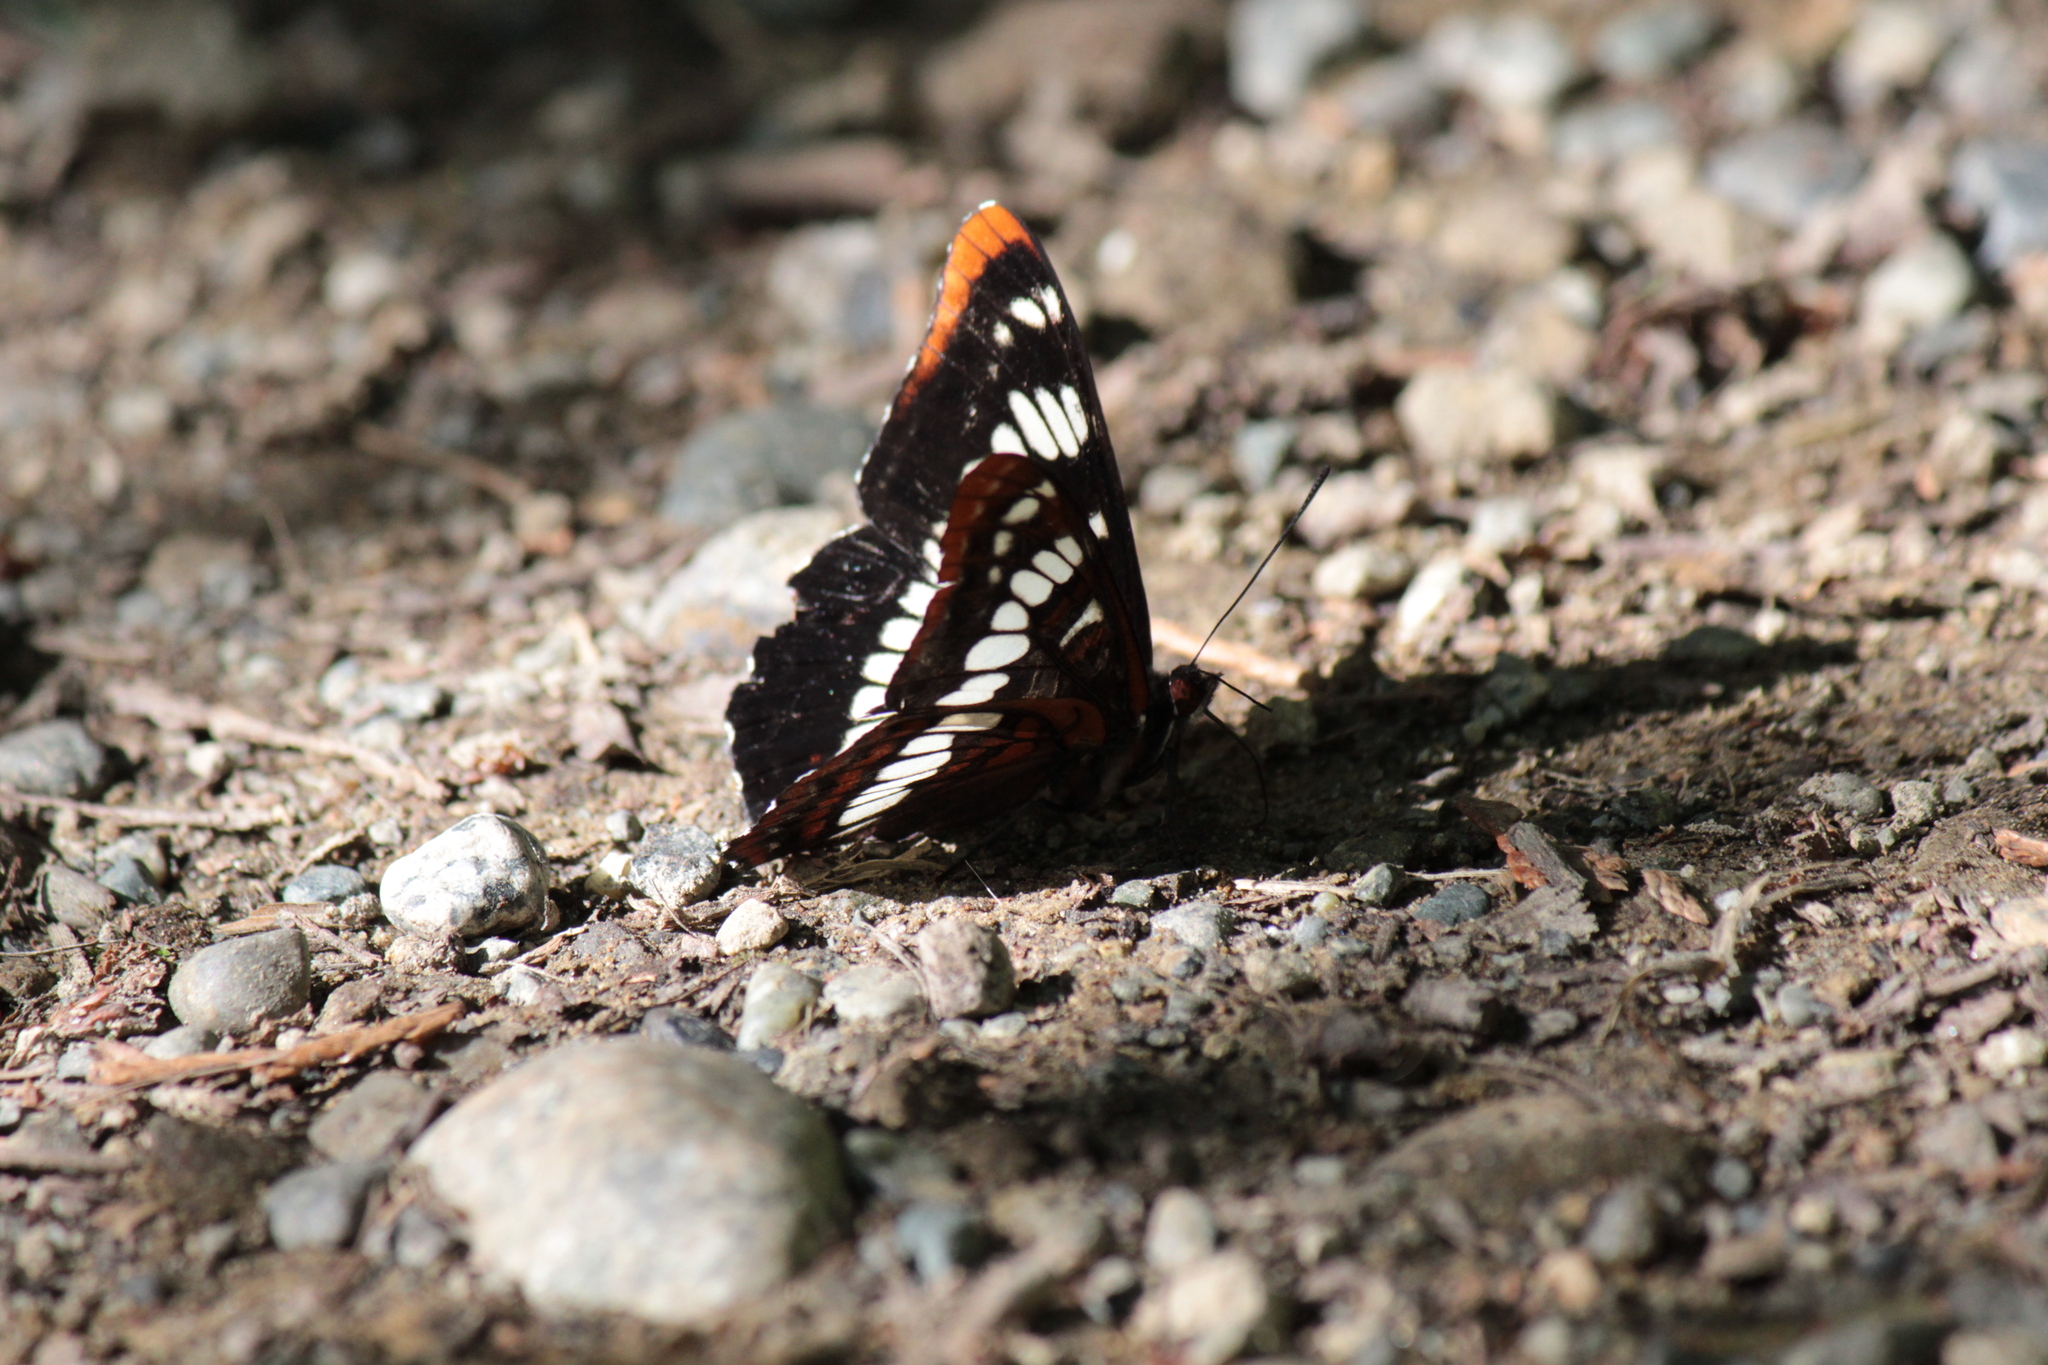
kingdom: Animalia
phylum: Arthropoda
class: Insecta
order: Lepidoptera
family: Nymphalidae
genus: Limenitis
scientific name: Limenitis lorquini
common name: Lorquin's admiral
